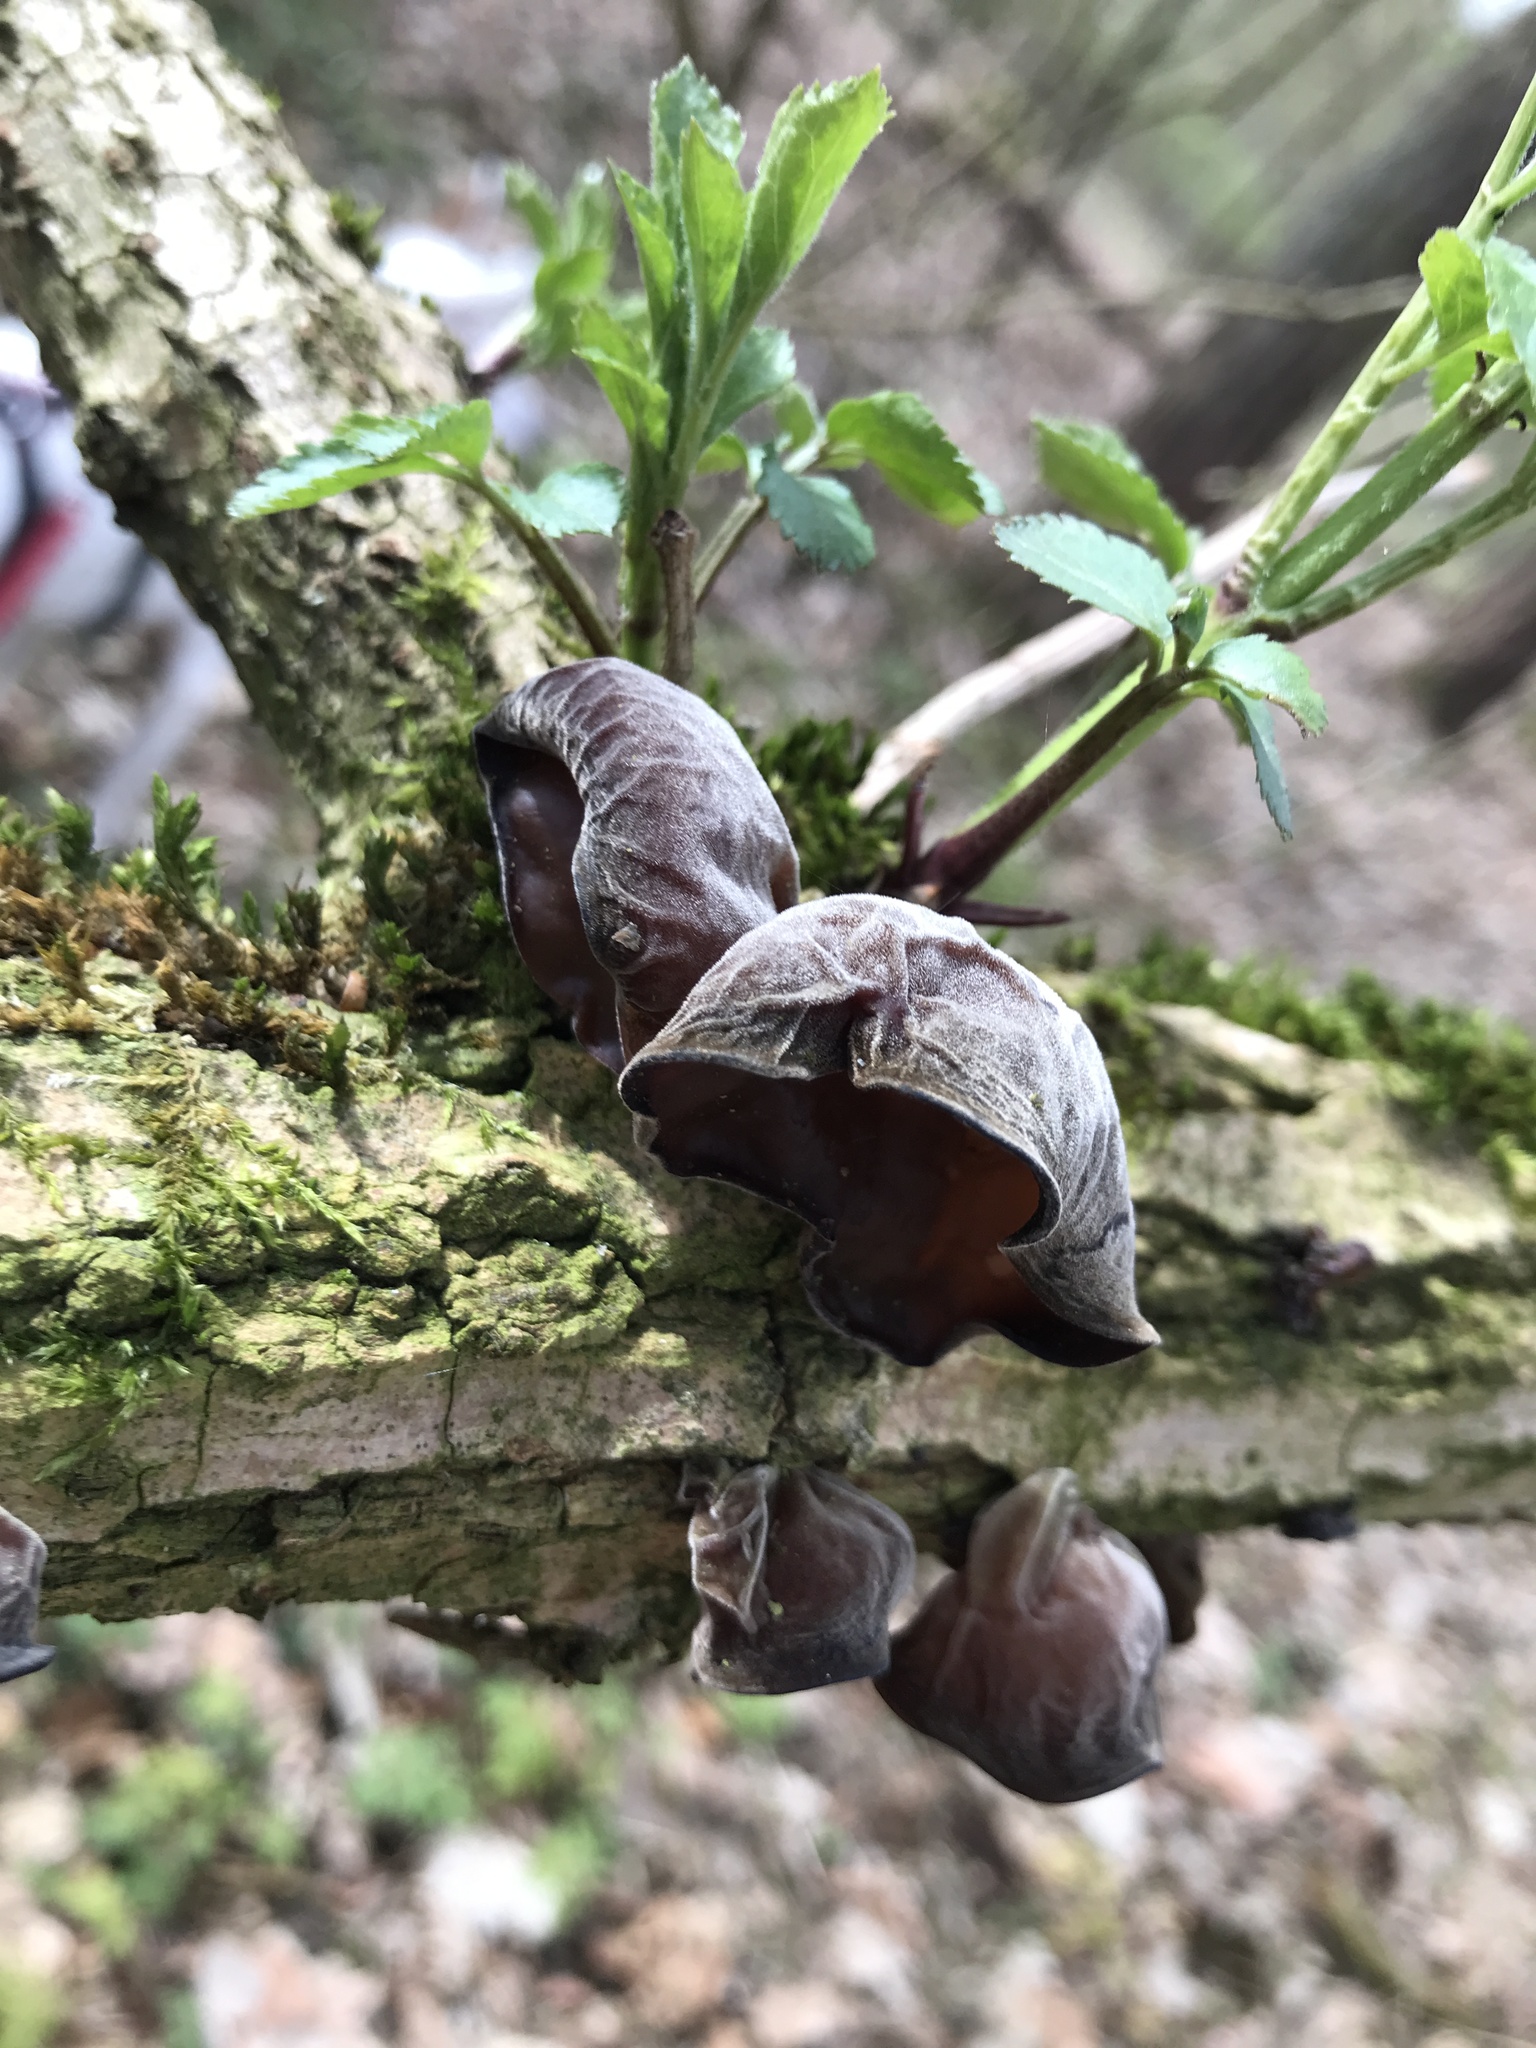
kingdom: Fungi
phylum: Basidiomycota
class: Agaricomycetes
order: Auriculariales
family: Auriculariaceae
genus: Auricularia
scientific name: Auricularia auricula-judae
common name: Jelly ear
